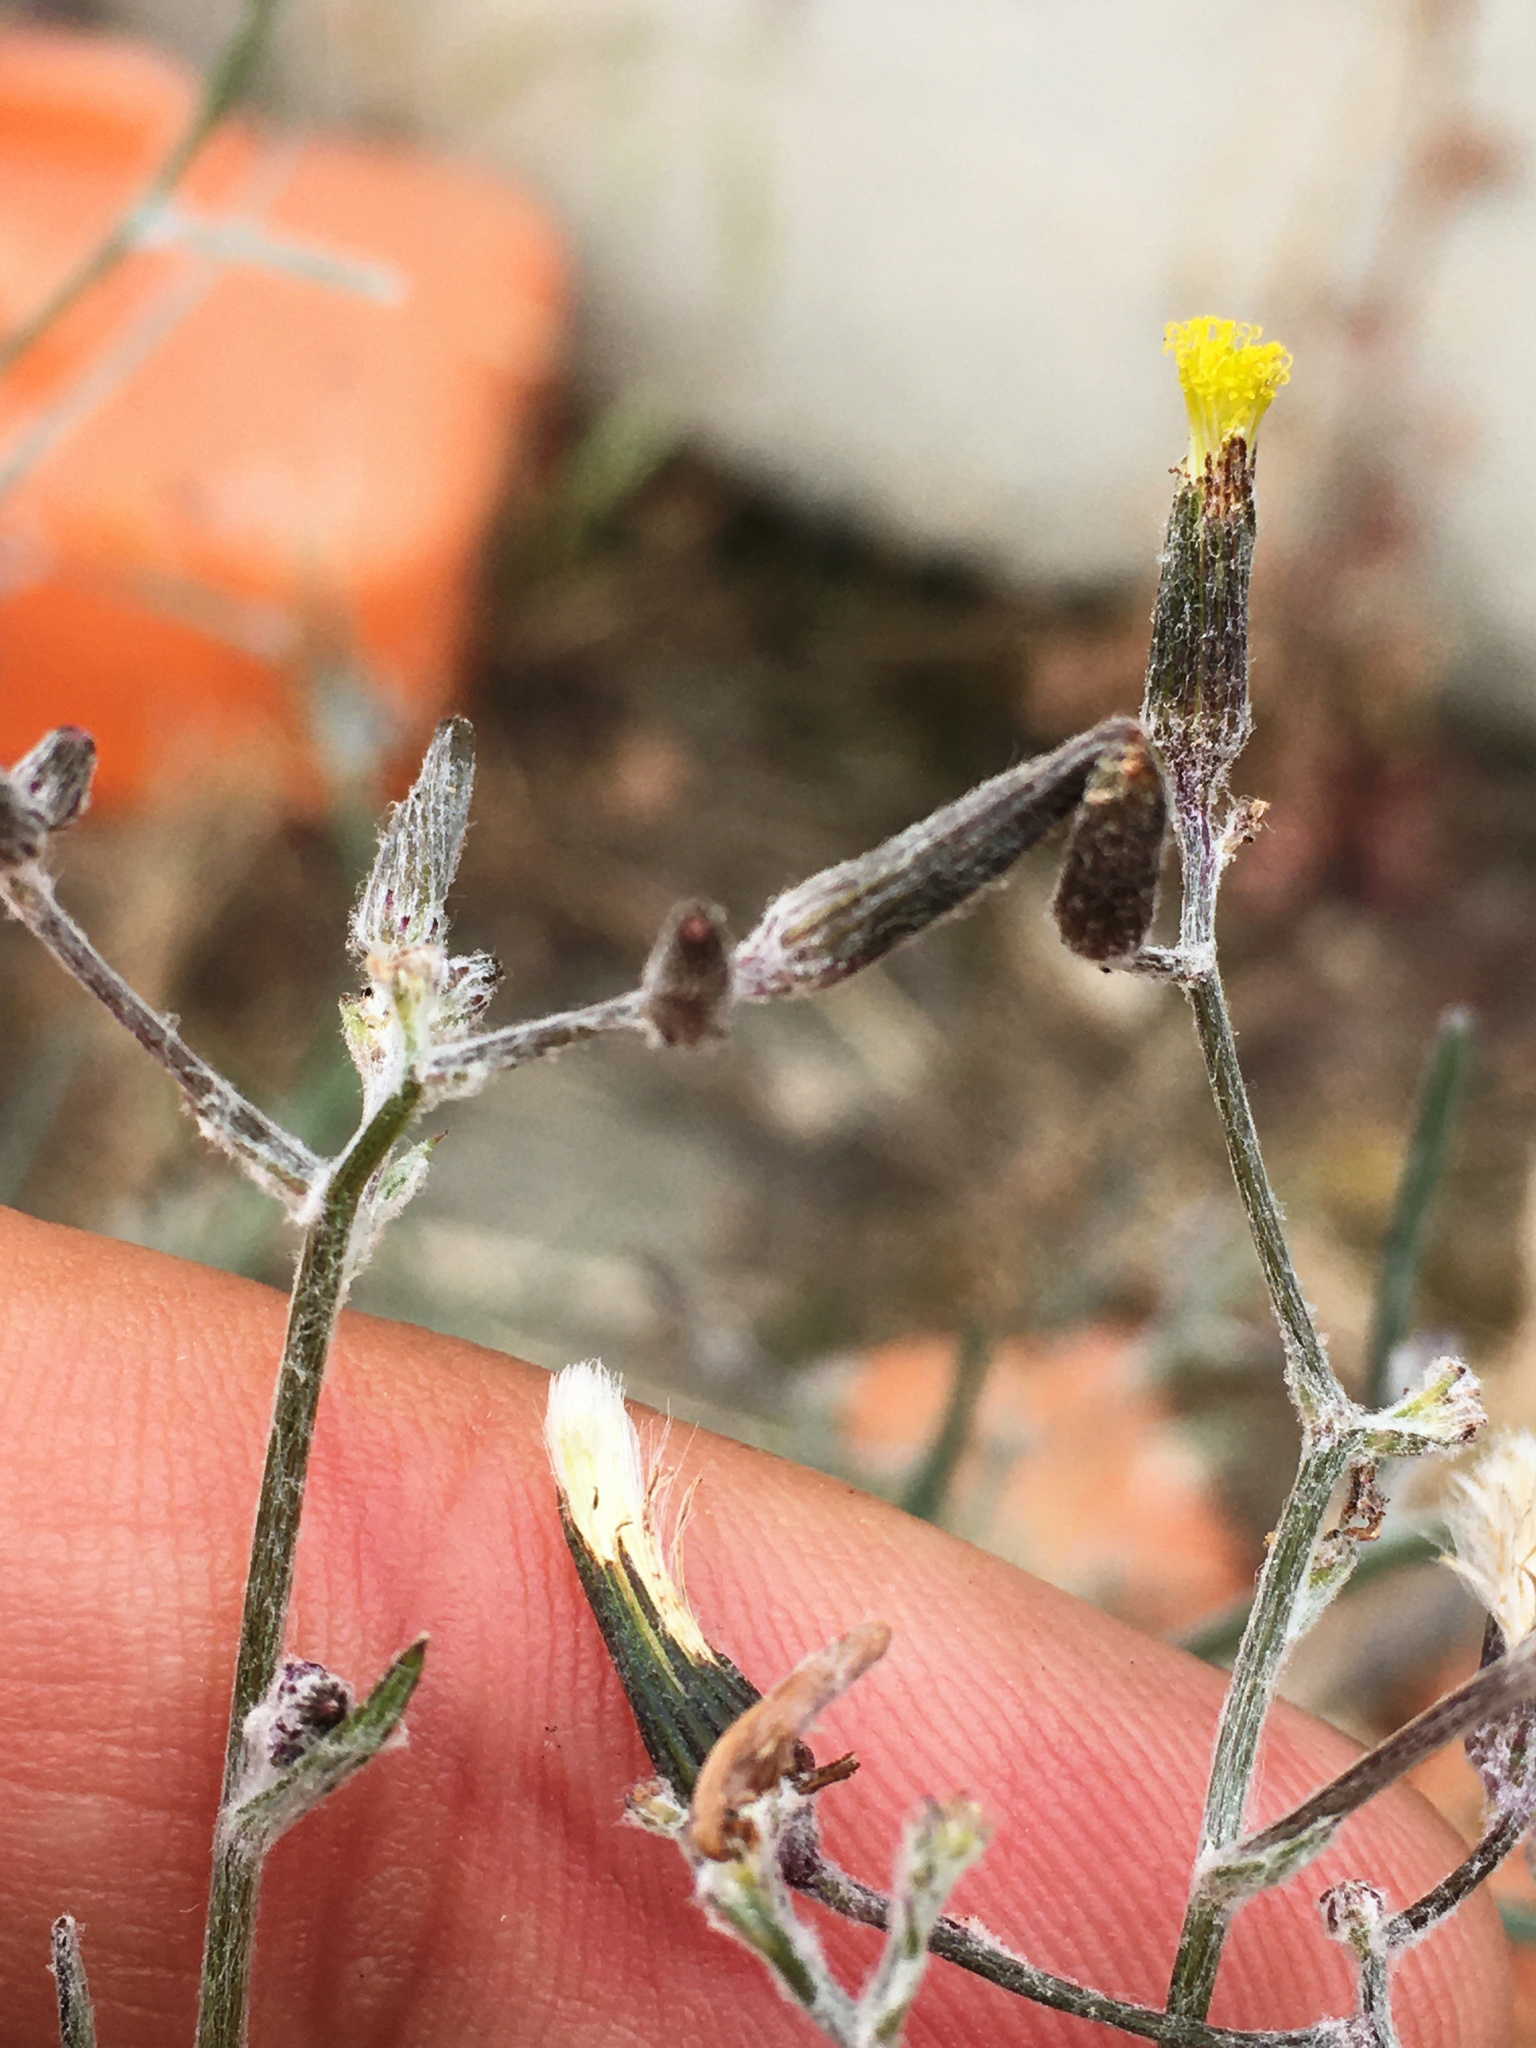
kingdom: Plantae
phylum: Tracheophyta
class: Magnoliopsida
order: Asterales
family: Asteraceae
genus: Senecio
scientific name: Senecio quadridentatus
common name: Cotton fireweed
